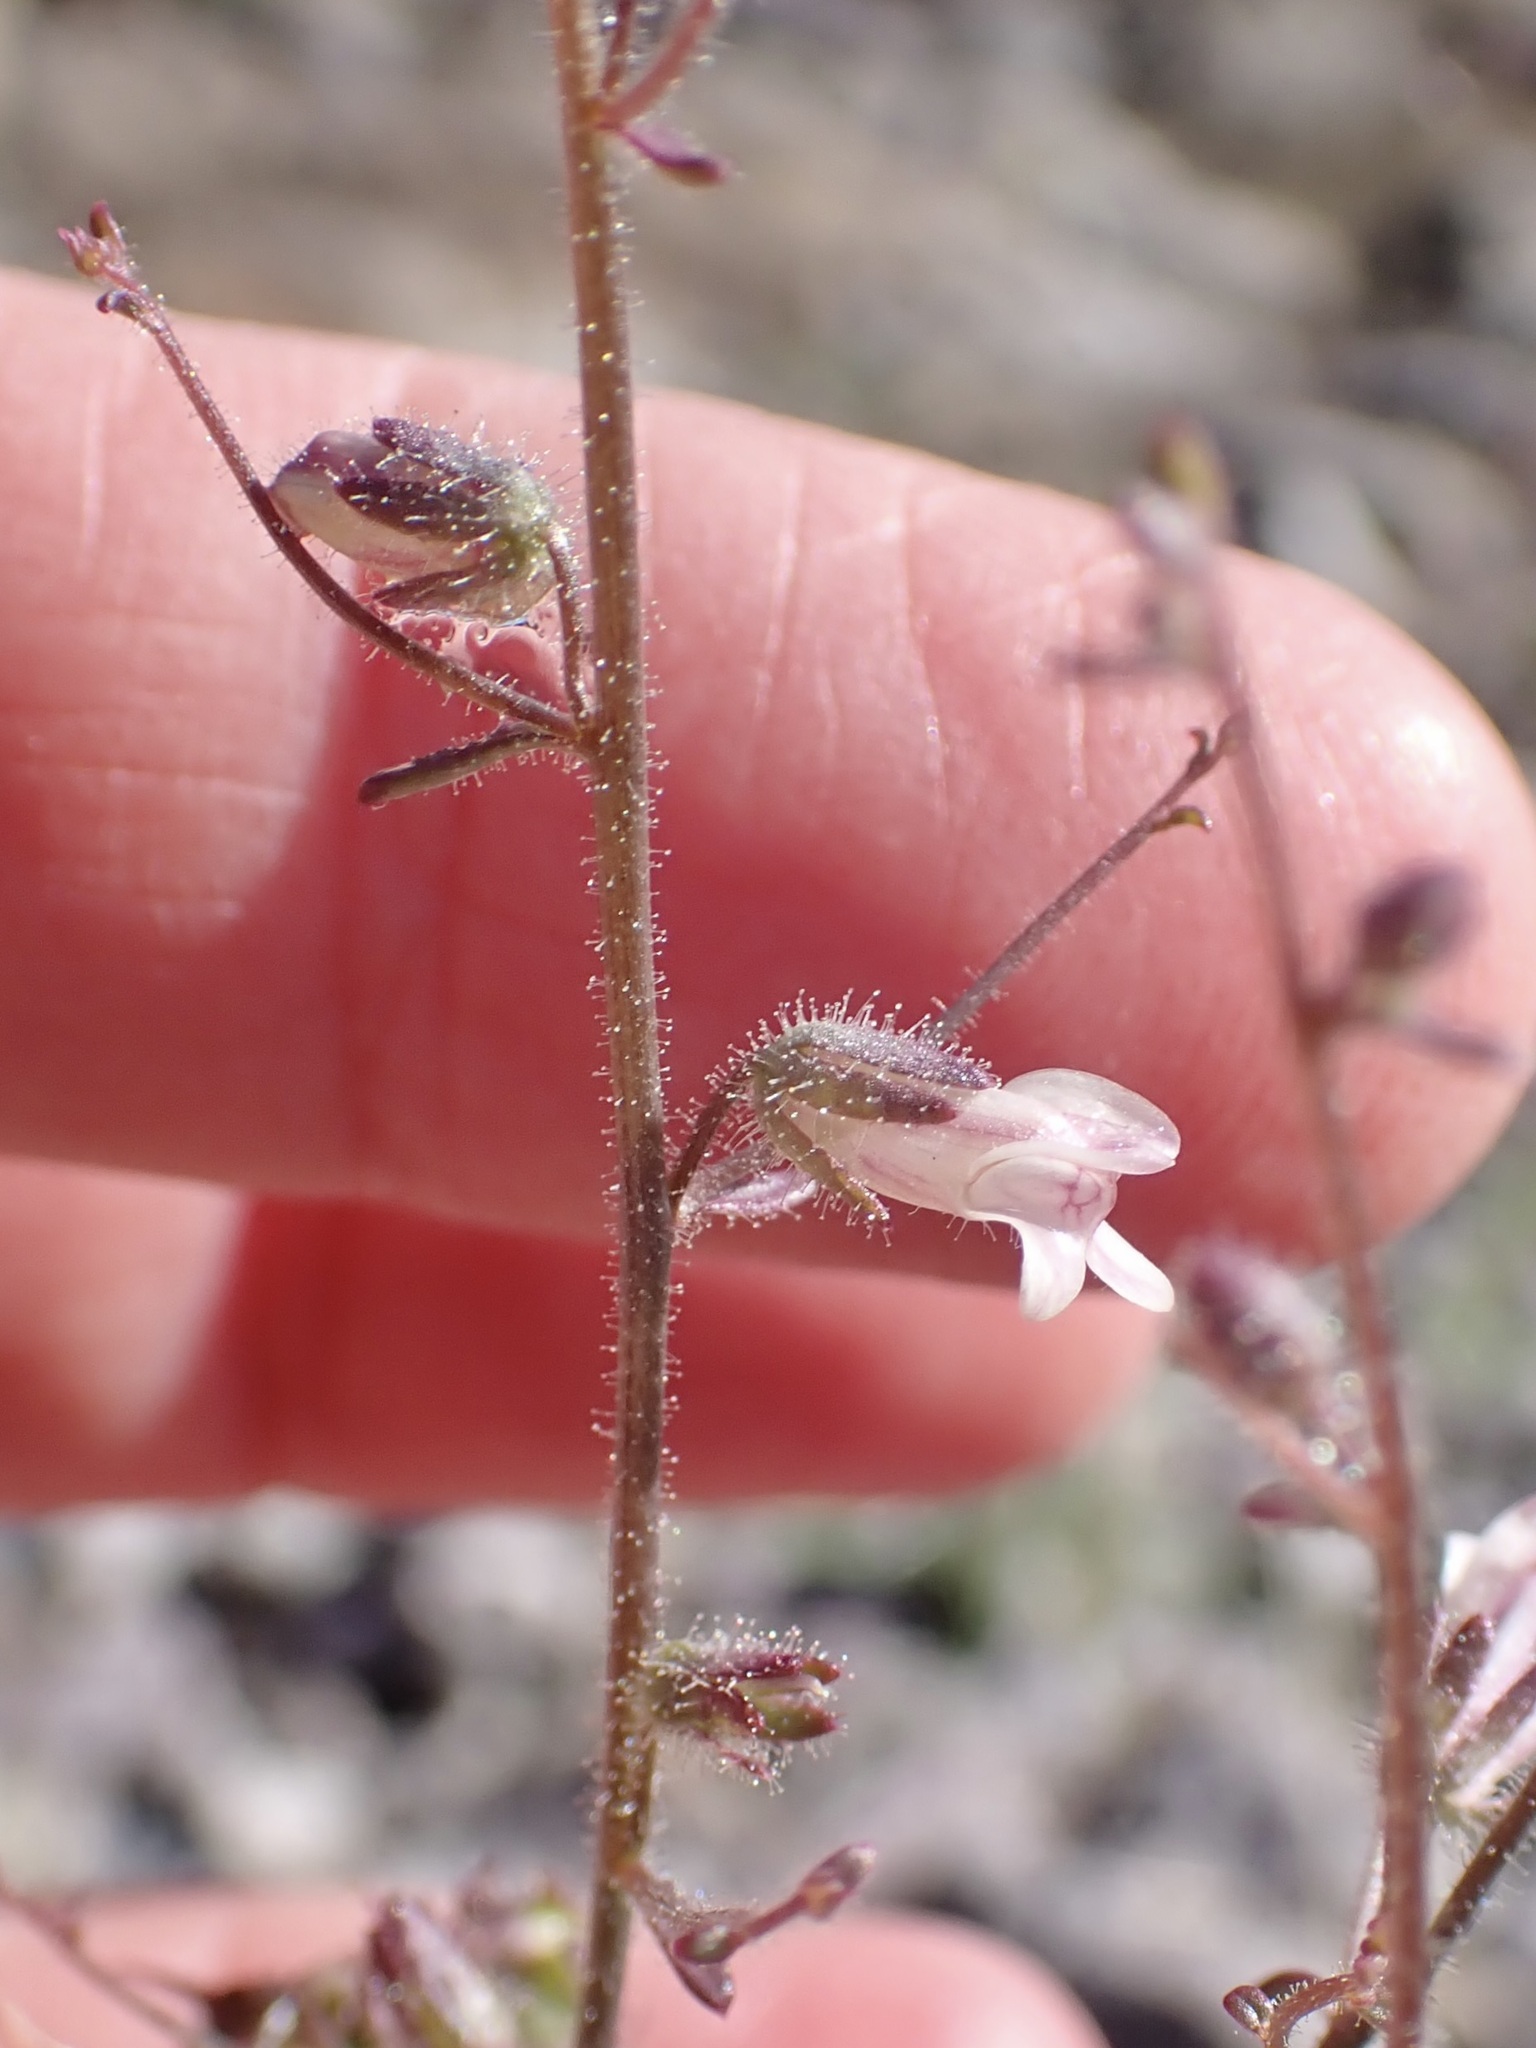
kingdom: Plantae
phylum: Tracheophyta
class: Magnoliopsida
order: Lamiales
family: Plantaginaceae
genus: Sairocarpus
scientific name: Sairocarpus costatus
